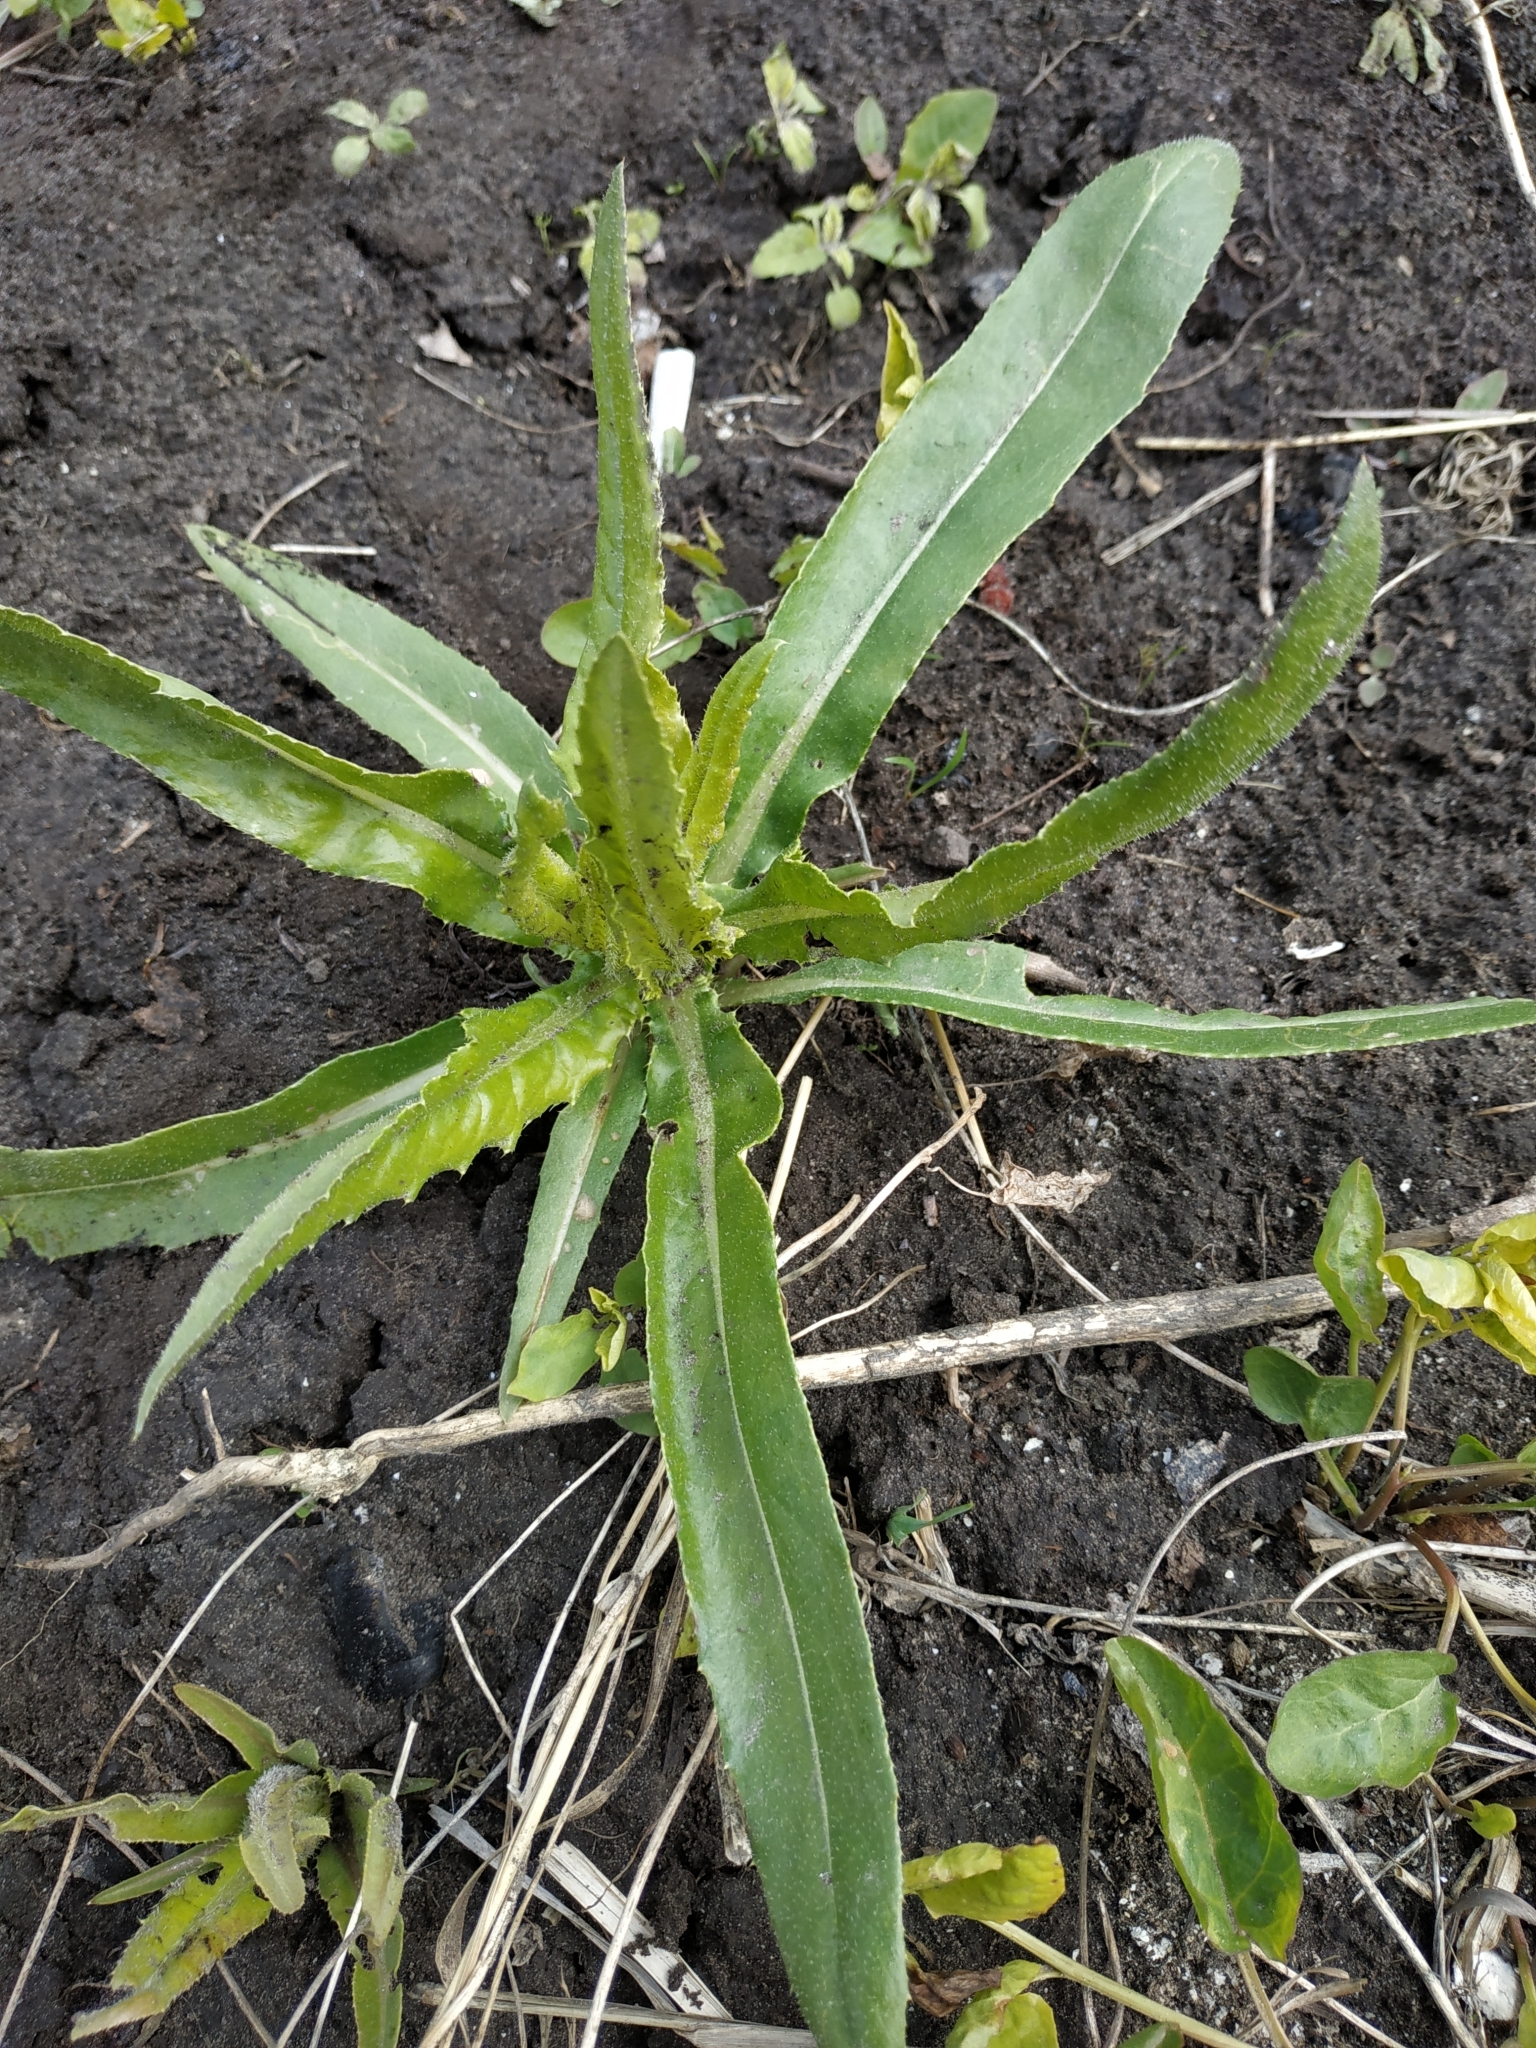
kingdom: Plantae
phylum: Tracheophyta
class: Magnoliopsida
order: Asterales
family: Asteraceae
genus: Cirsium
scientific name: Cirsium arvense
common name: Creeping thistle
